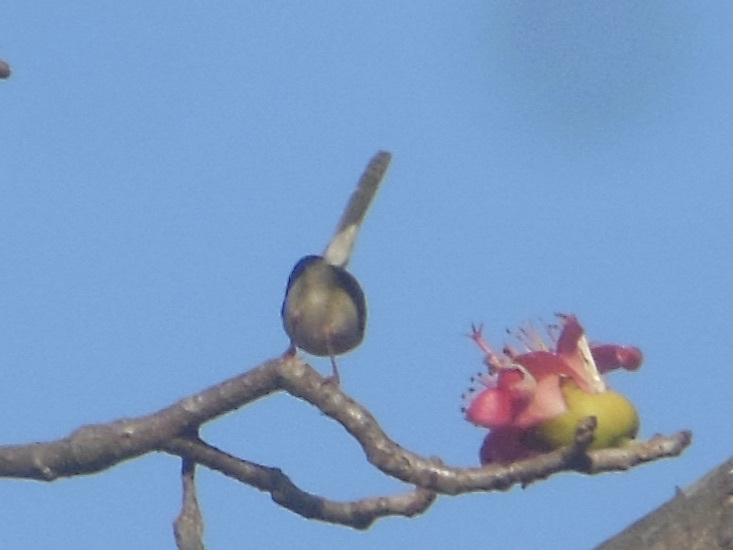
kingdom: Animalia
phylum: Chordata
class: Aves
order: Passeriformes
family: Cisticolidae
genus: Orthotomus
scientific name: Orthotomus sutorius
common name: Common tailorbird
